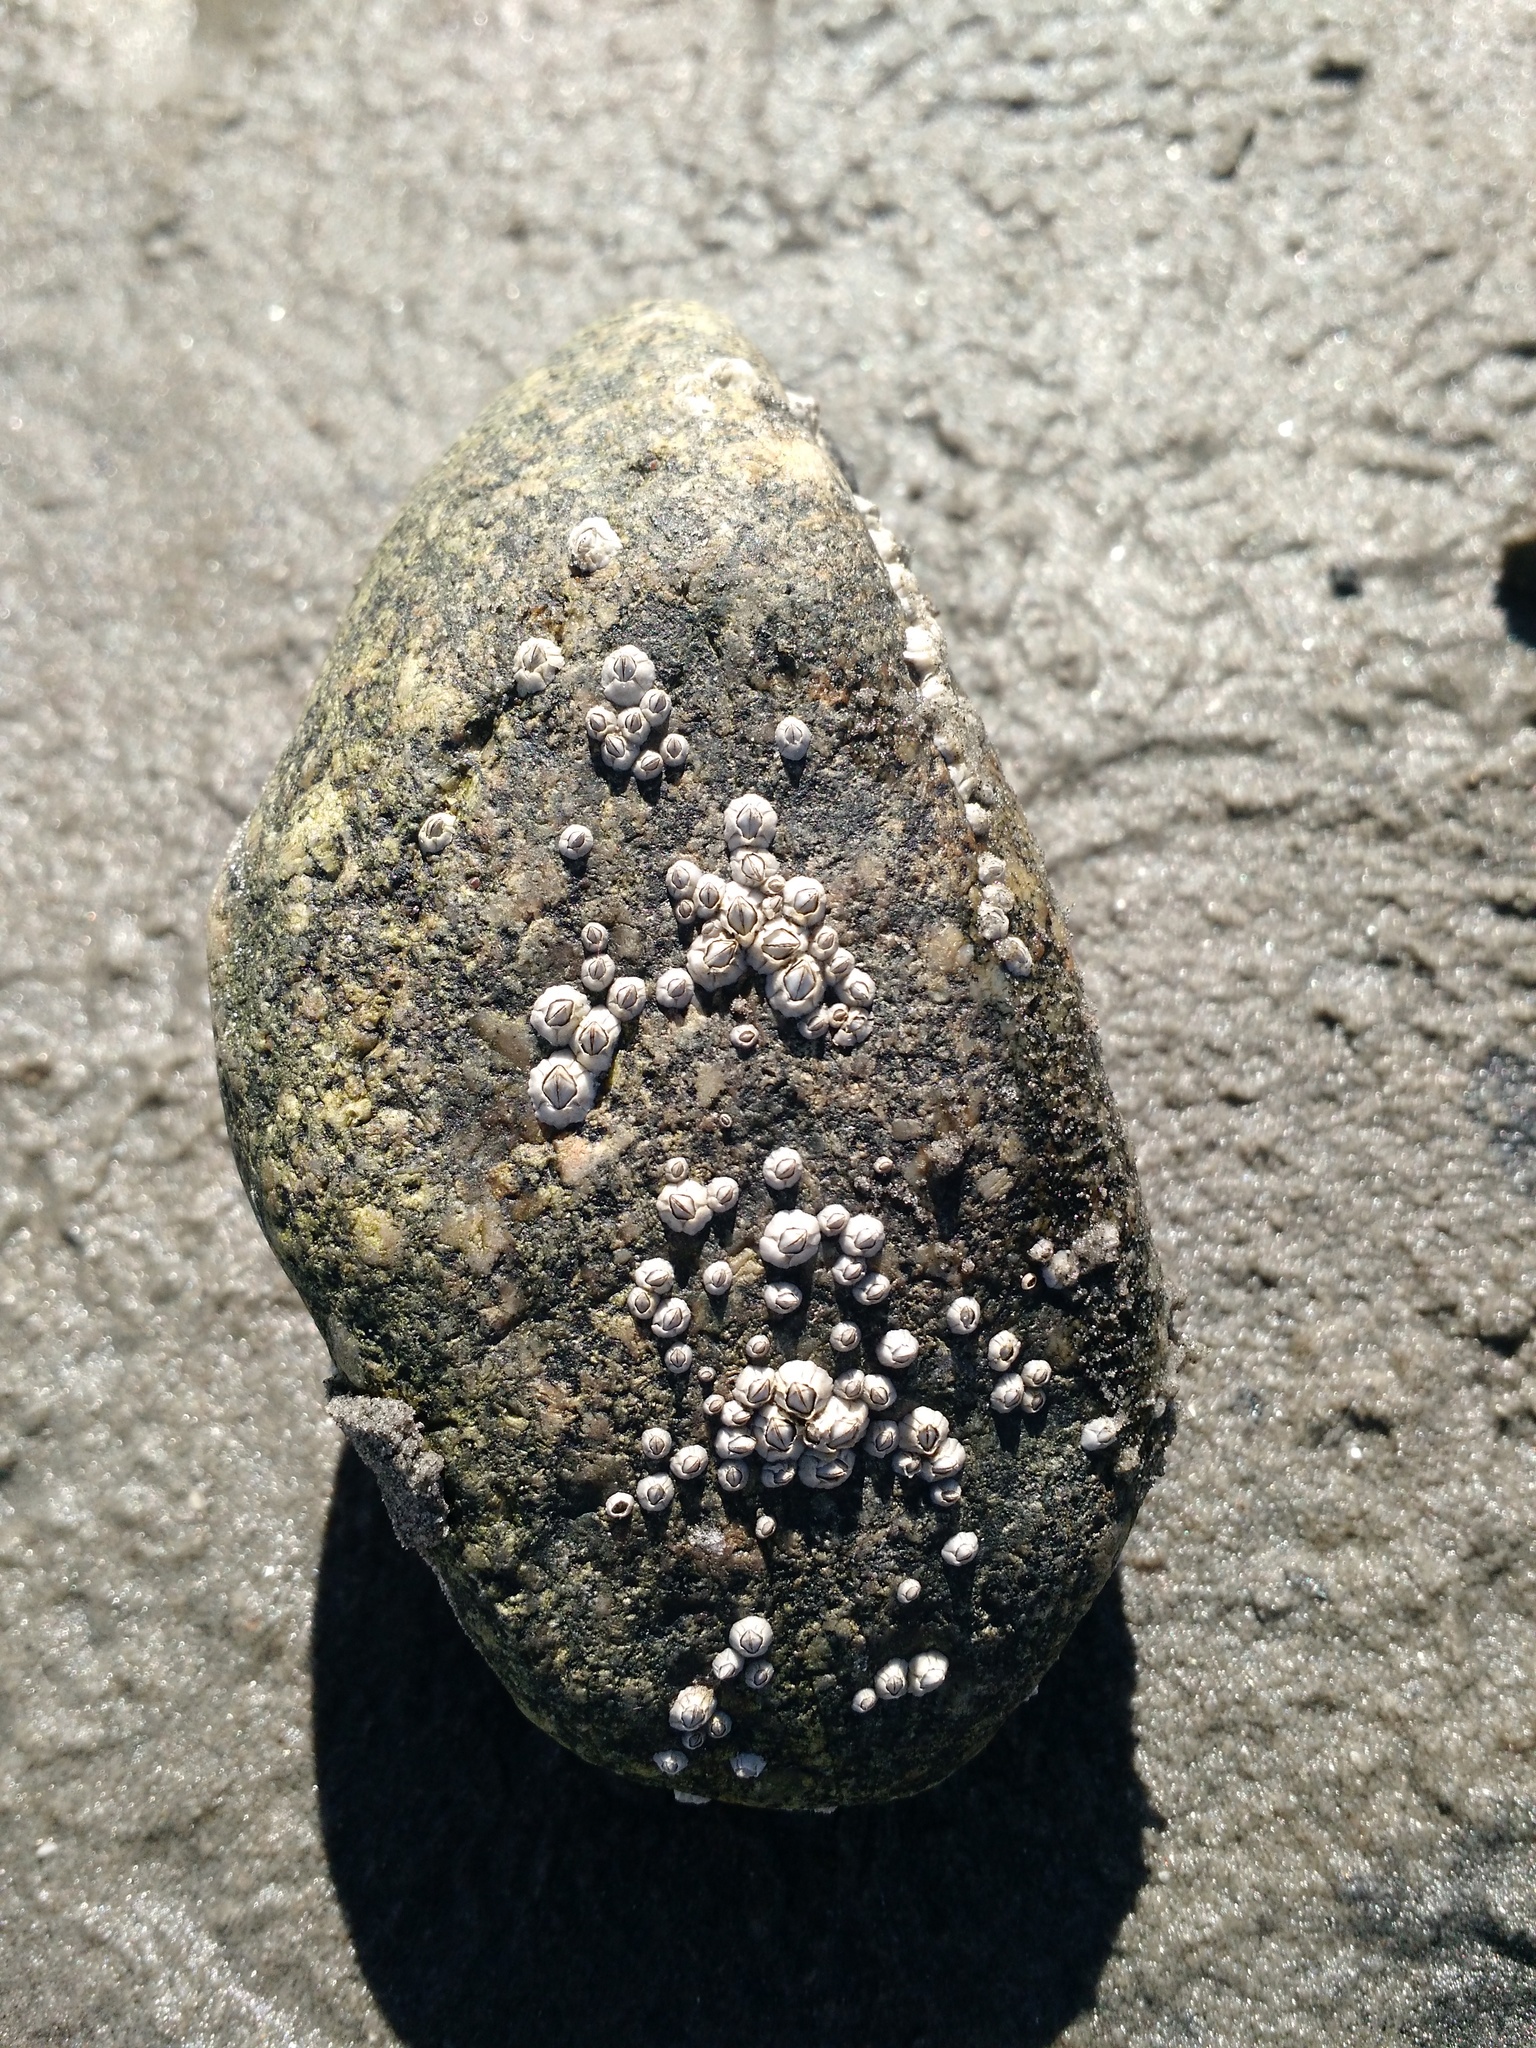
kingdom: Animalia
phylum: Arthropoda
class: Maxillopoda
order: Sessilia
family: Archaeobalanidae
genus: Semibalanus
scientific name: Semibalanus balanoides
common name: Acorn barnacle
